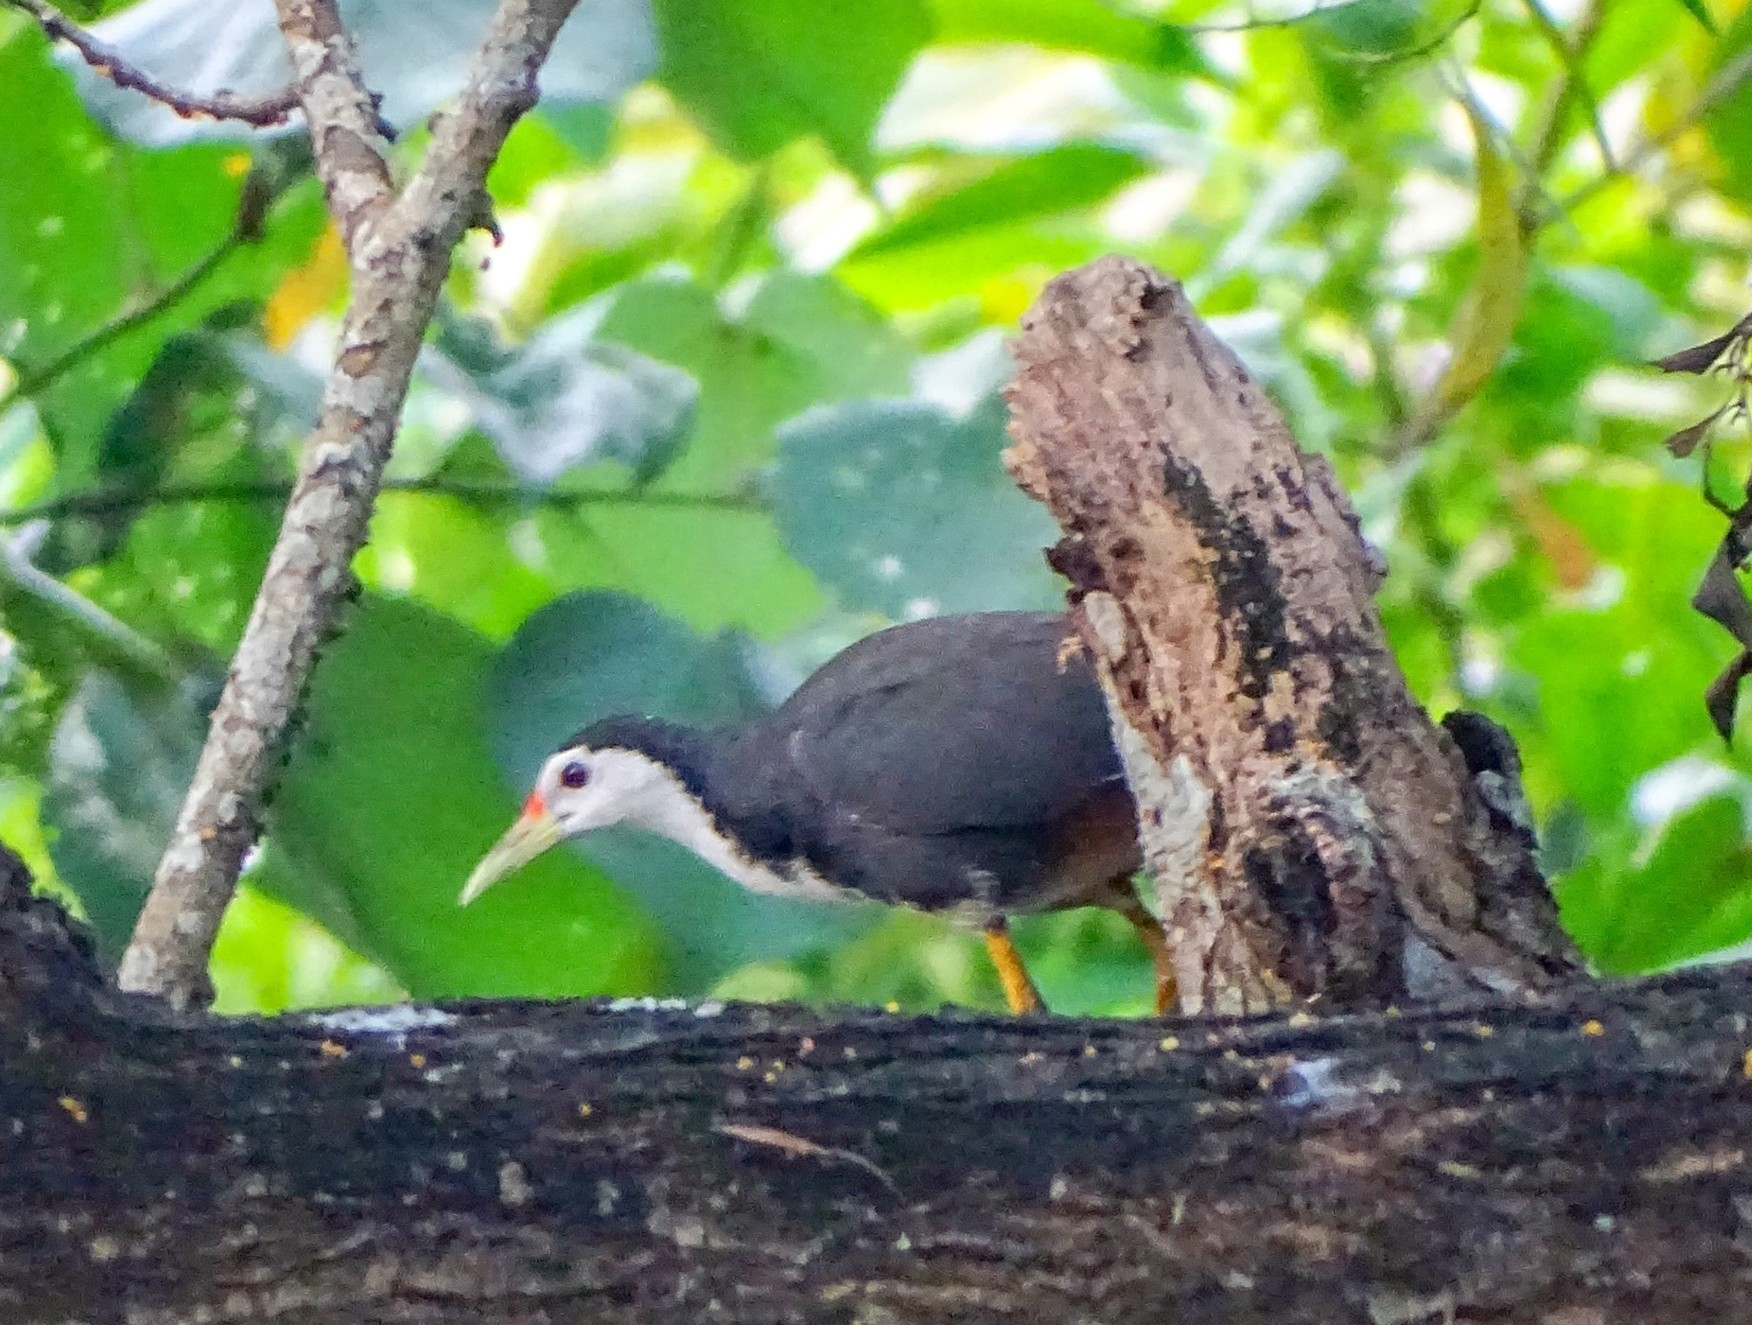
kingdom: Animalia
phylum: Chordata
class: Aves
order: Gruiformes
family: Rallidae
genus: Amaurornis
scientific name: Amaurornis phoenicurus
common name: White-breasted waterhen
